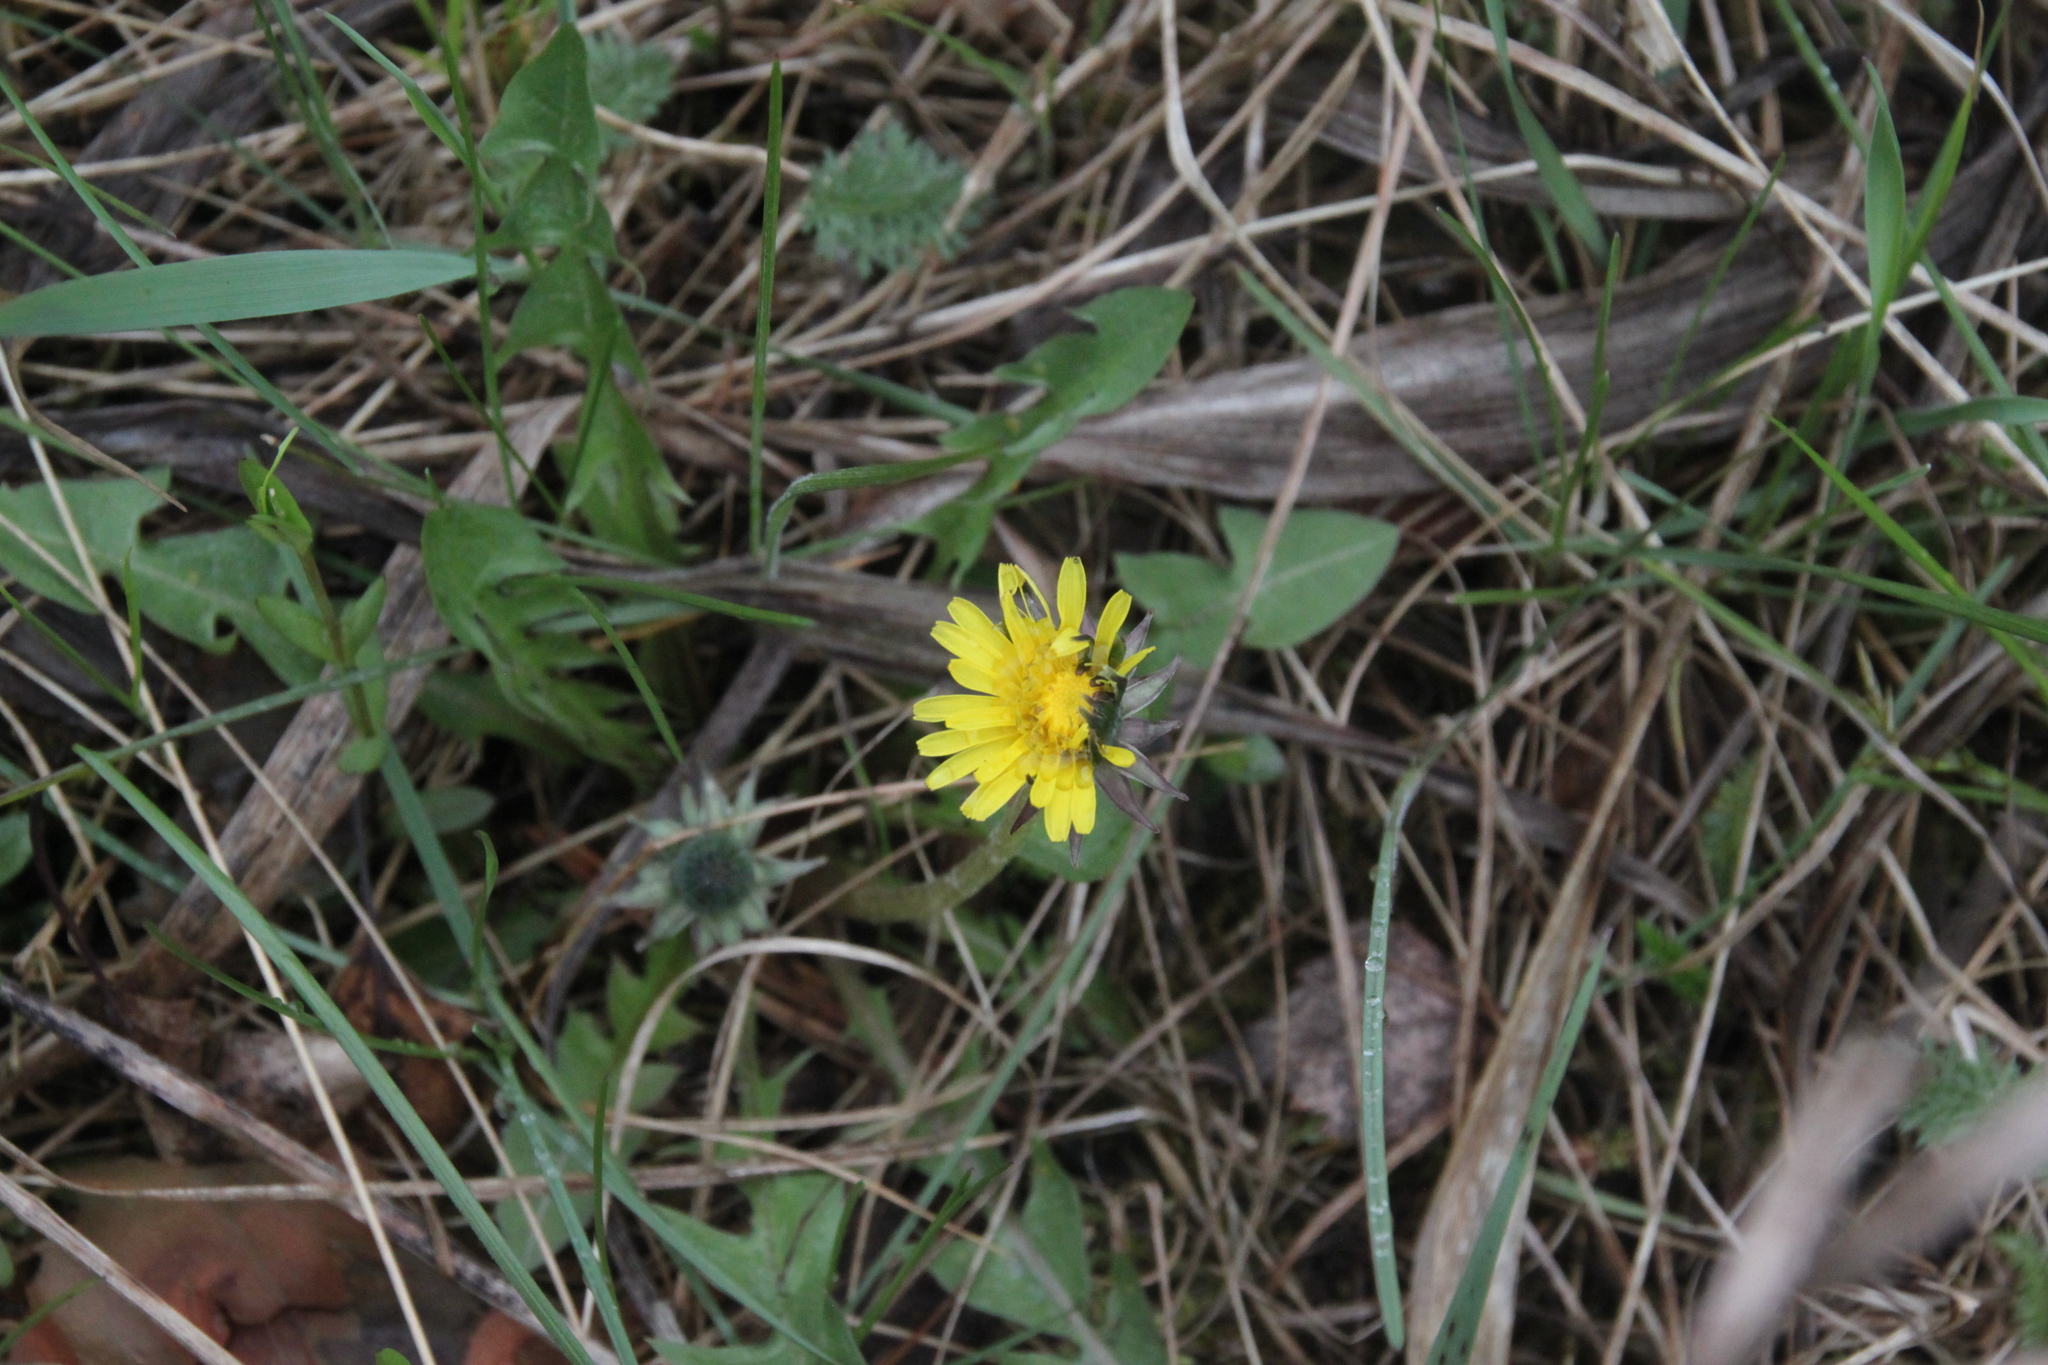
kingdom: Plantae
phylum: Tracheophyta
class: Magnoliopsida
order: Asterales
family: Asteraceae
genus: Taraxacum
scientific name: Taraxacum officinale
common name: Common dandelion
